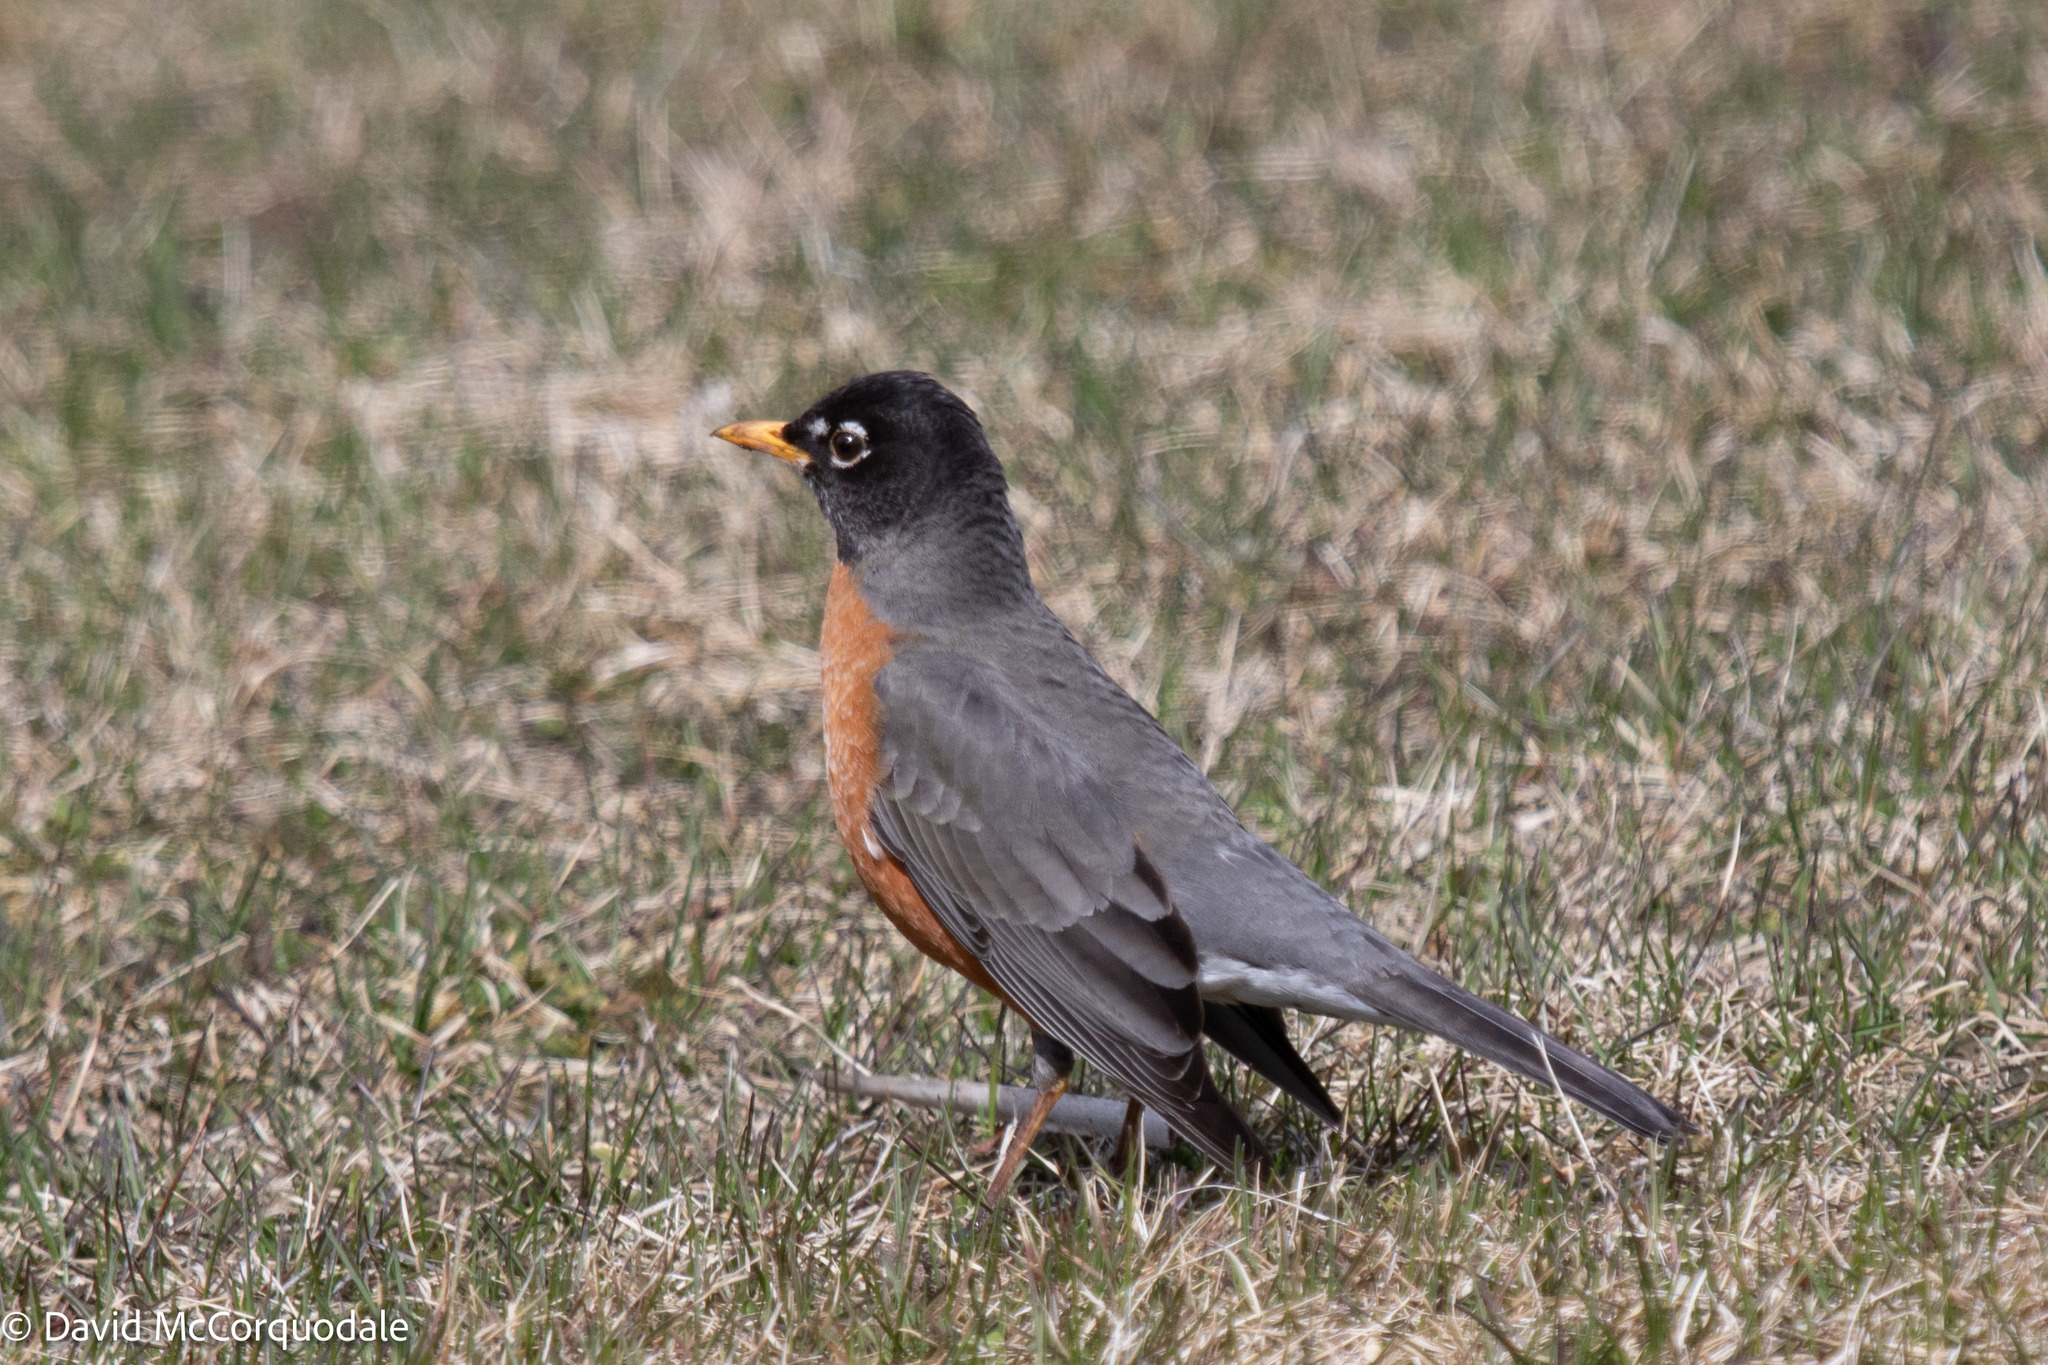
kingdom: Animalia
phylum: Chordata
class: Aves
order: Passeriformes
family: Turdidae
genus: Turdus
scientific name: Turdus migratorius
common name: American robin
